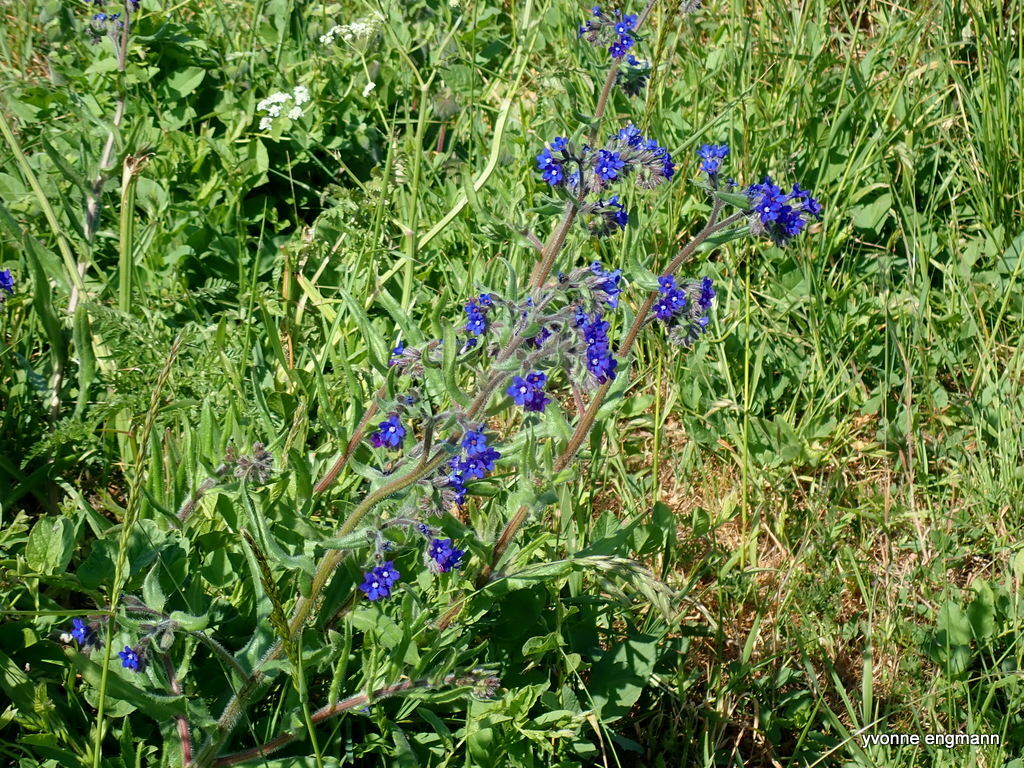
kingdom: Plantae
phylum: Tracheophyta
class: Magnoliopsida
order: Boraginales
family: Boraginaceae
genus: Anchusa
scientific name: Anchusa officinalis
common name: Alkanet
